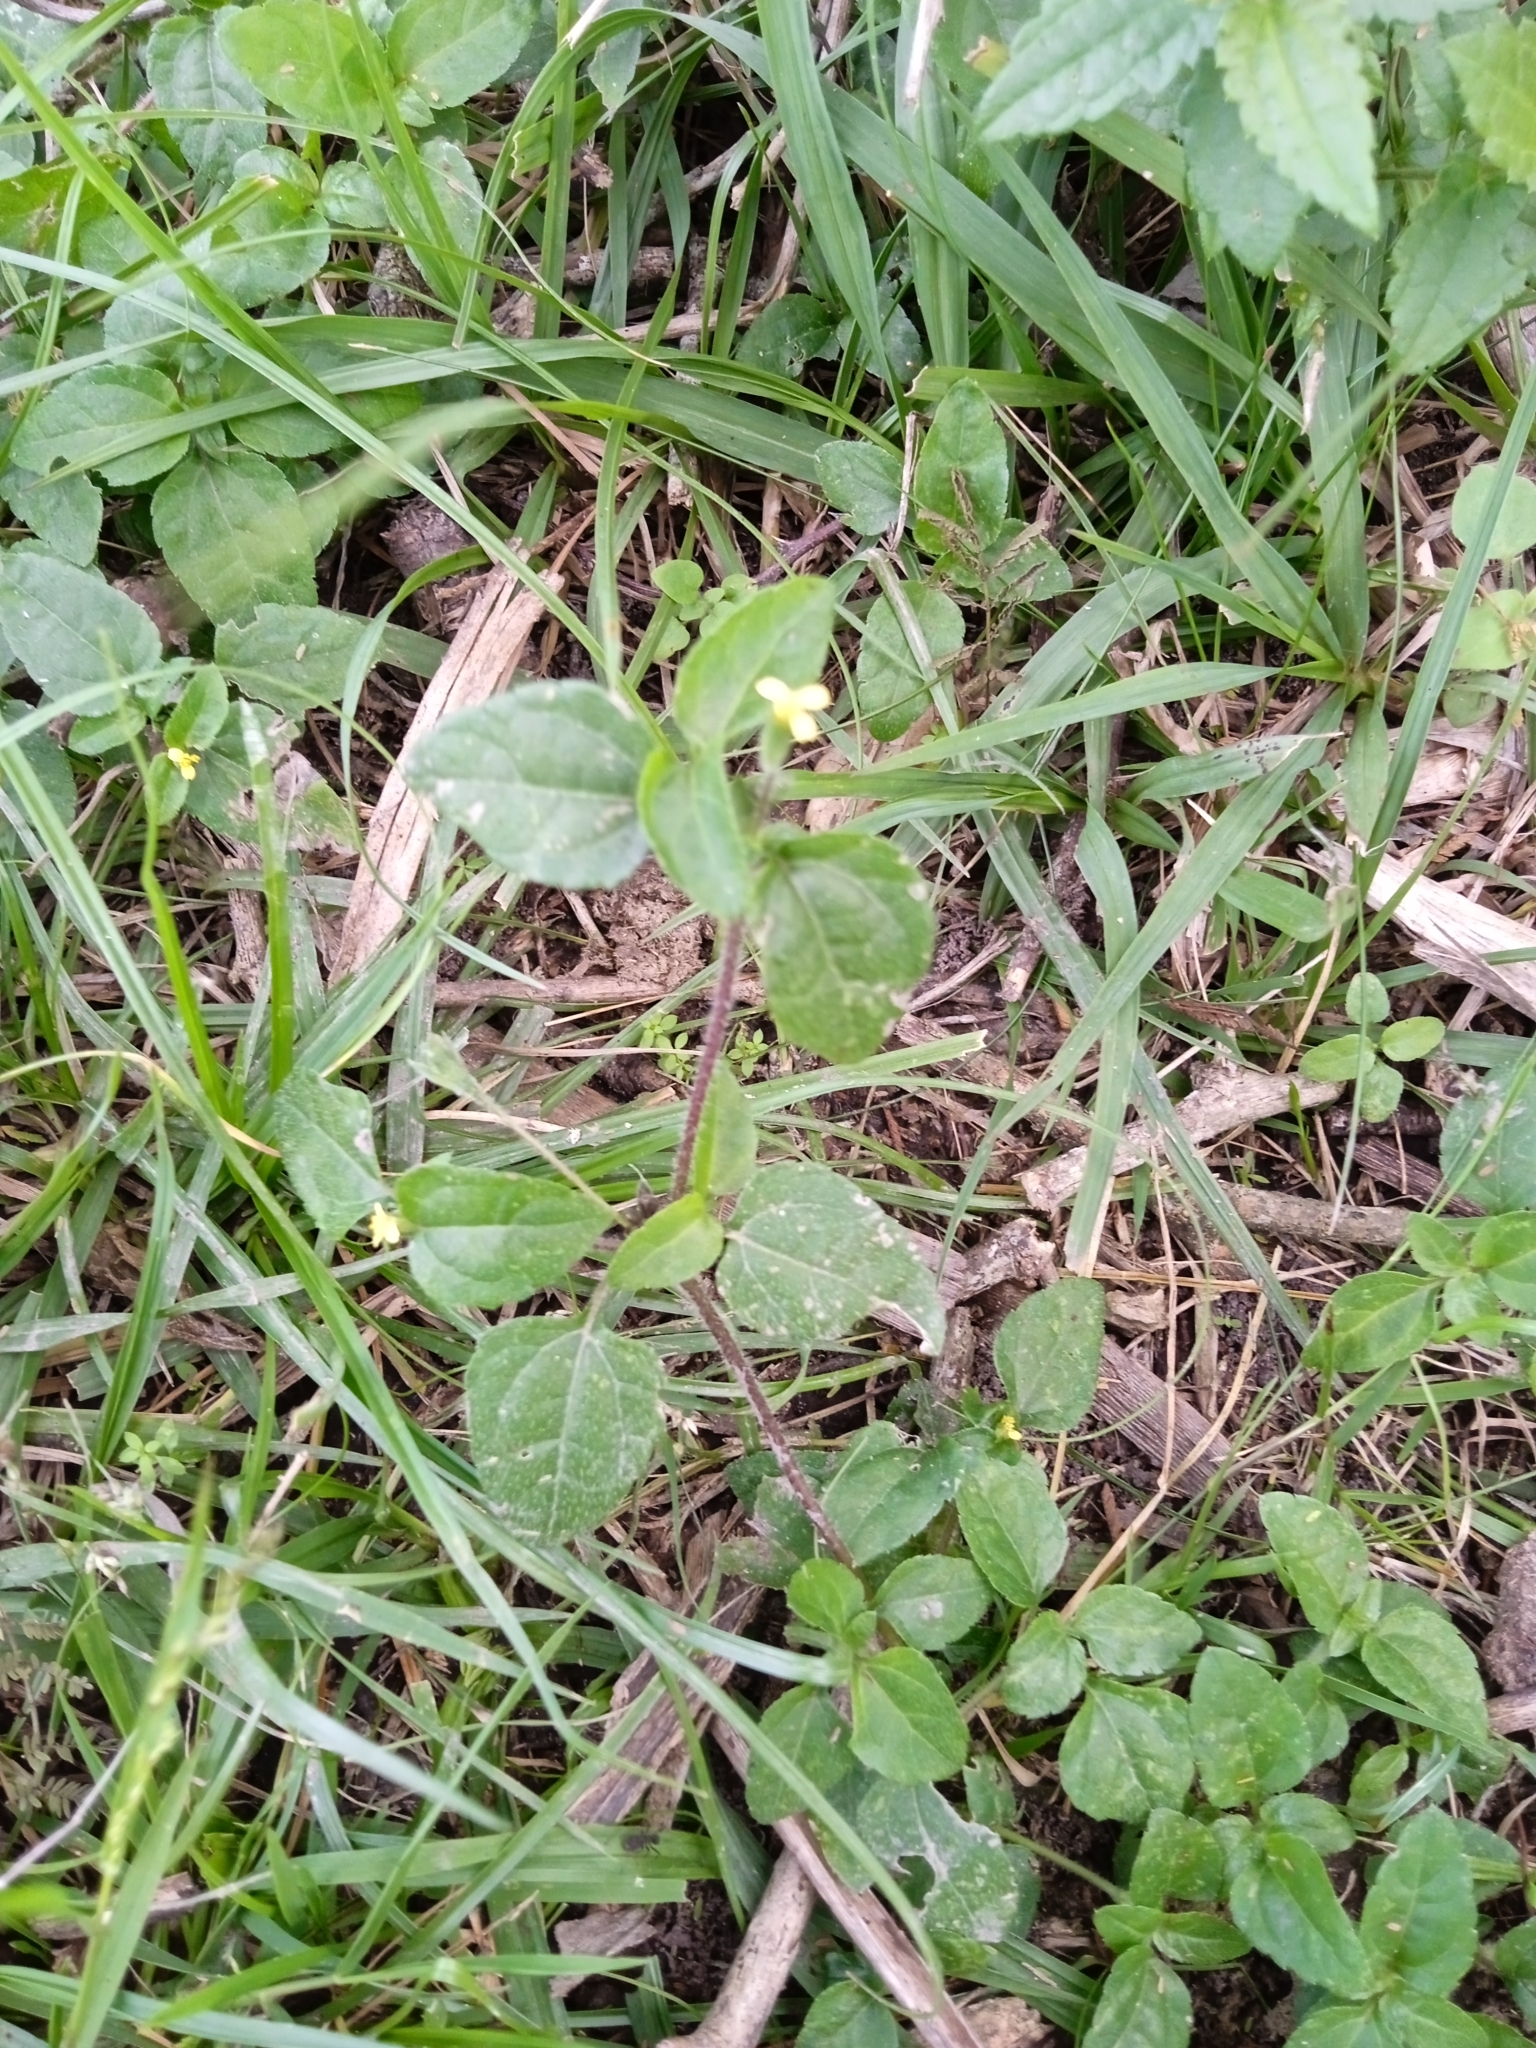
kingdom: Plantae
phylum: Tracheophyta
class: Magnoliopsida
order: Asterales
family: Asteraceae
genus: Calyptocarpus
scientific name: Calyptocarpus brasiliensis
